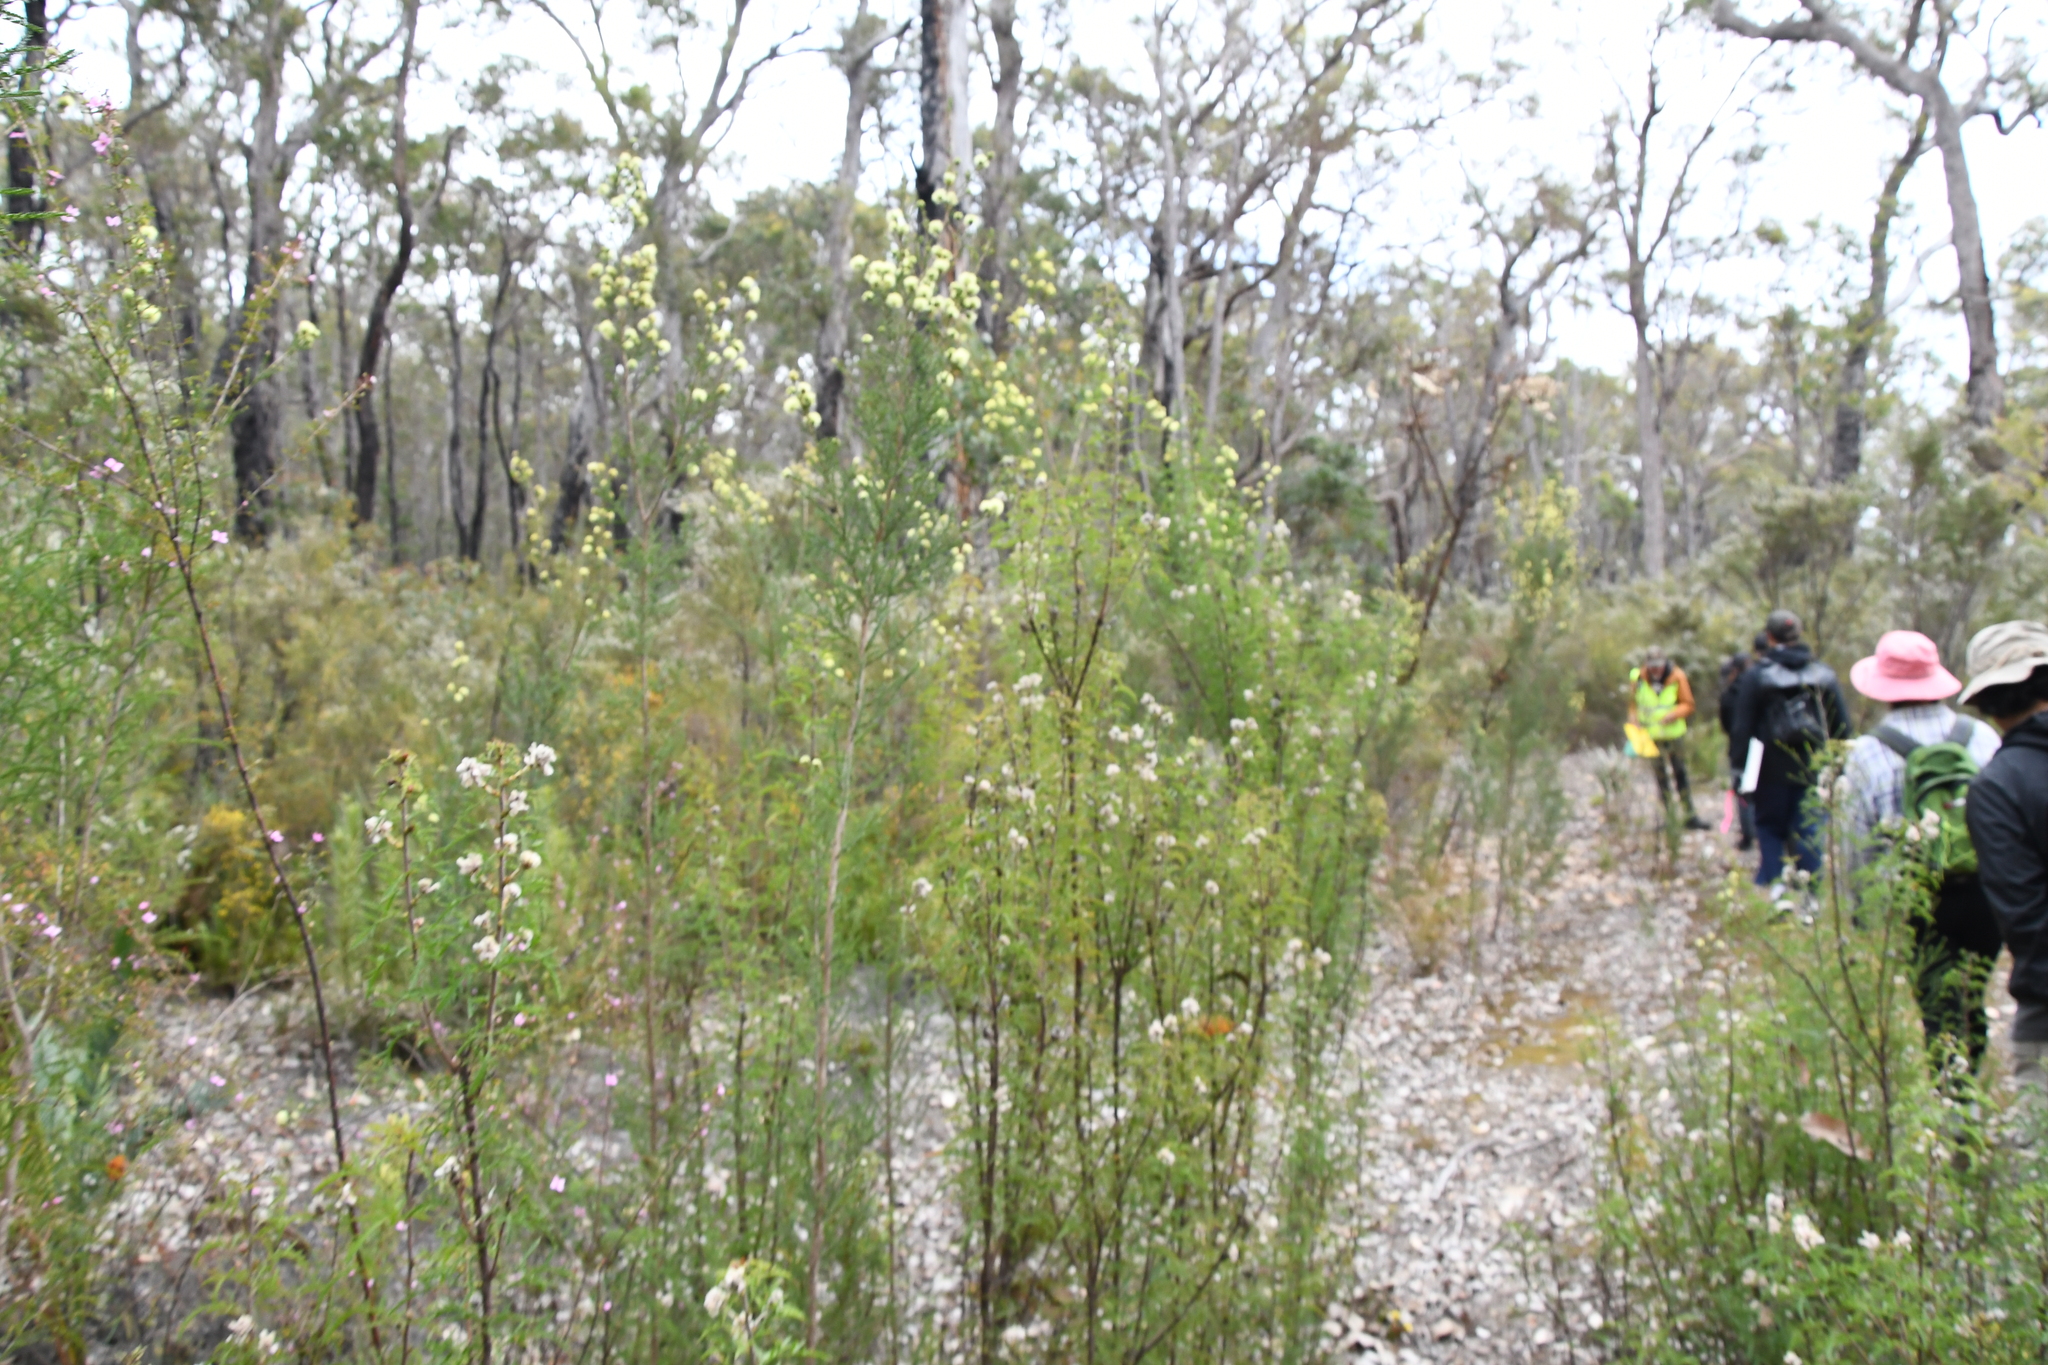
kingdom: Plantae
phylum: Tracheophyta
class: Magnoliopsida
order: Proteales
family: Proteaceae
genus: Petrophile
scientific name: Petrophile diversifolia
